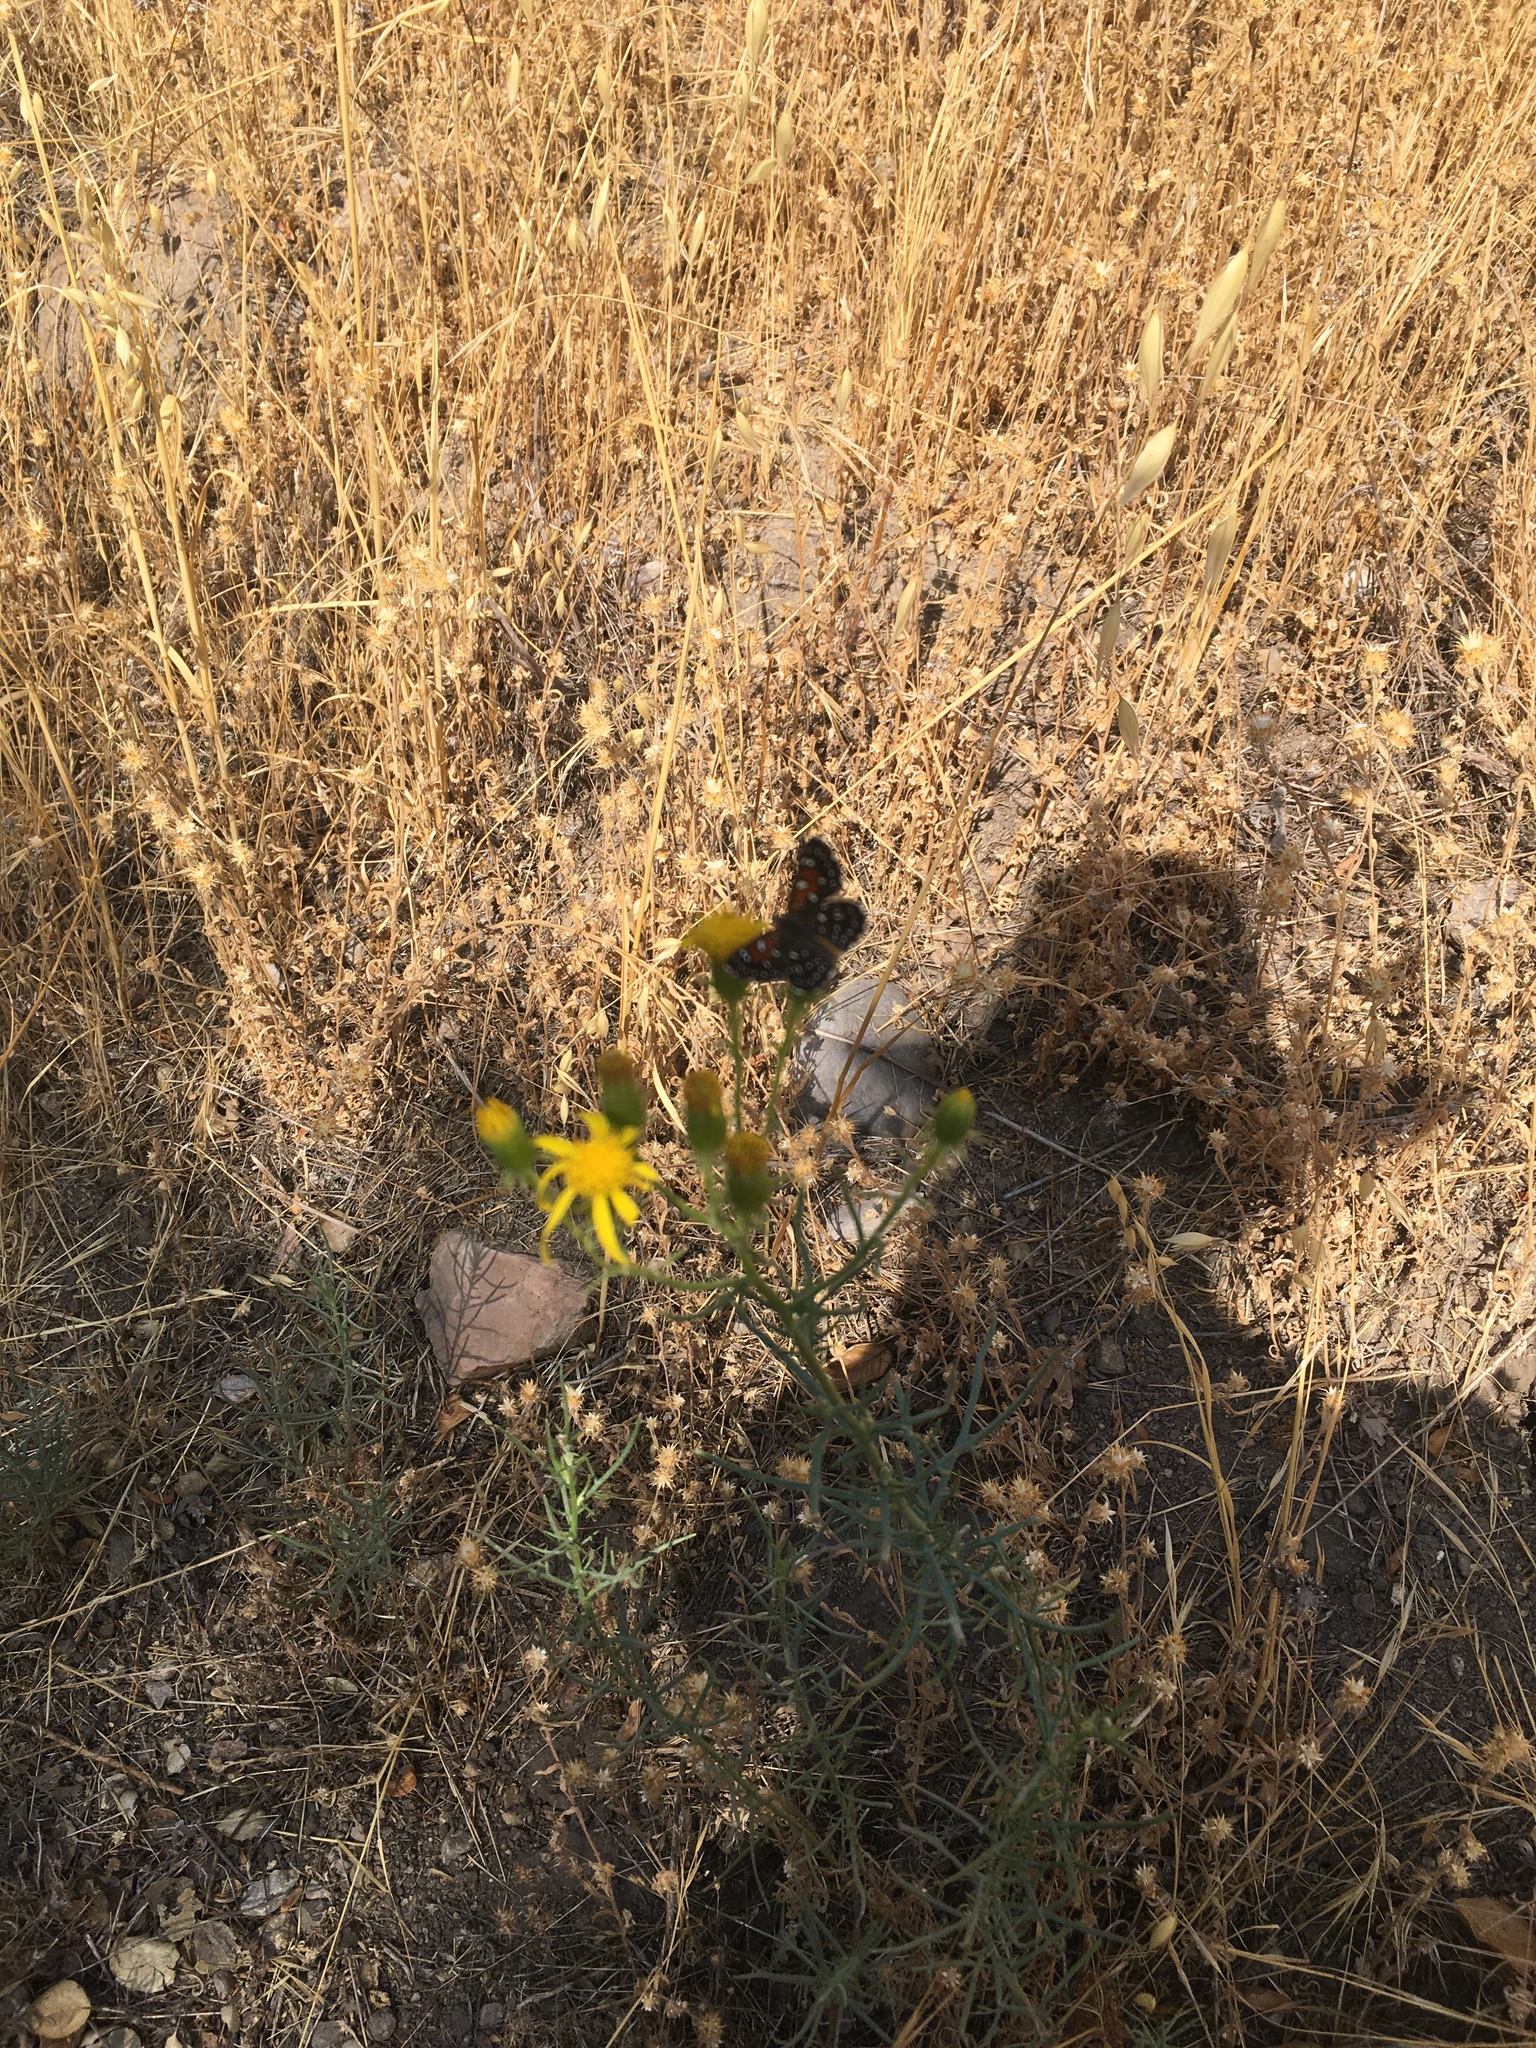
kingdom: Animalia
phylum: Arthropoda
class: Insecta
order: Lepidoptera
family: Riodinidae
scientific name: Riodinidae
